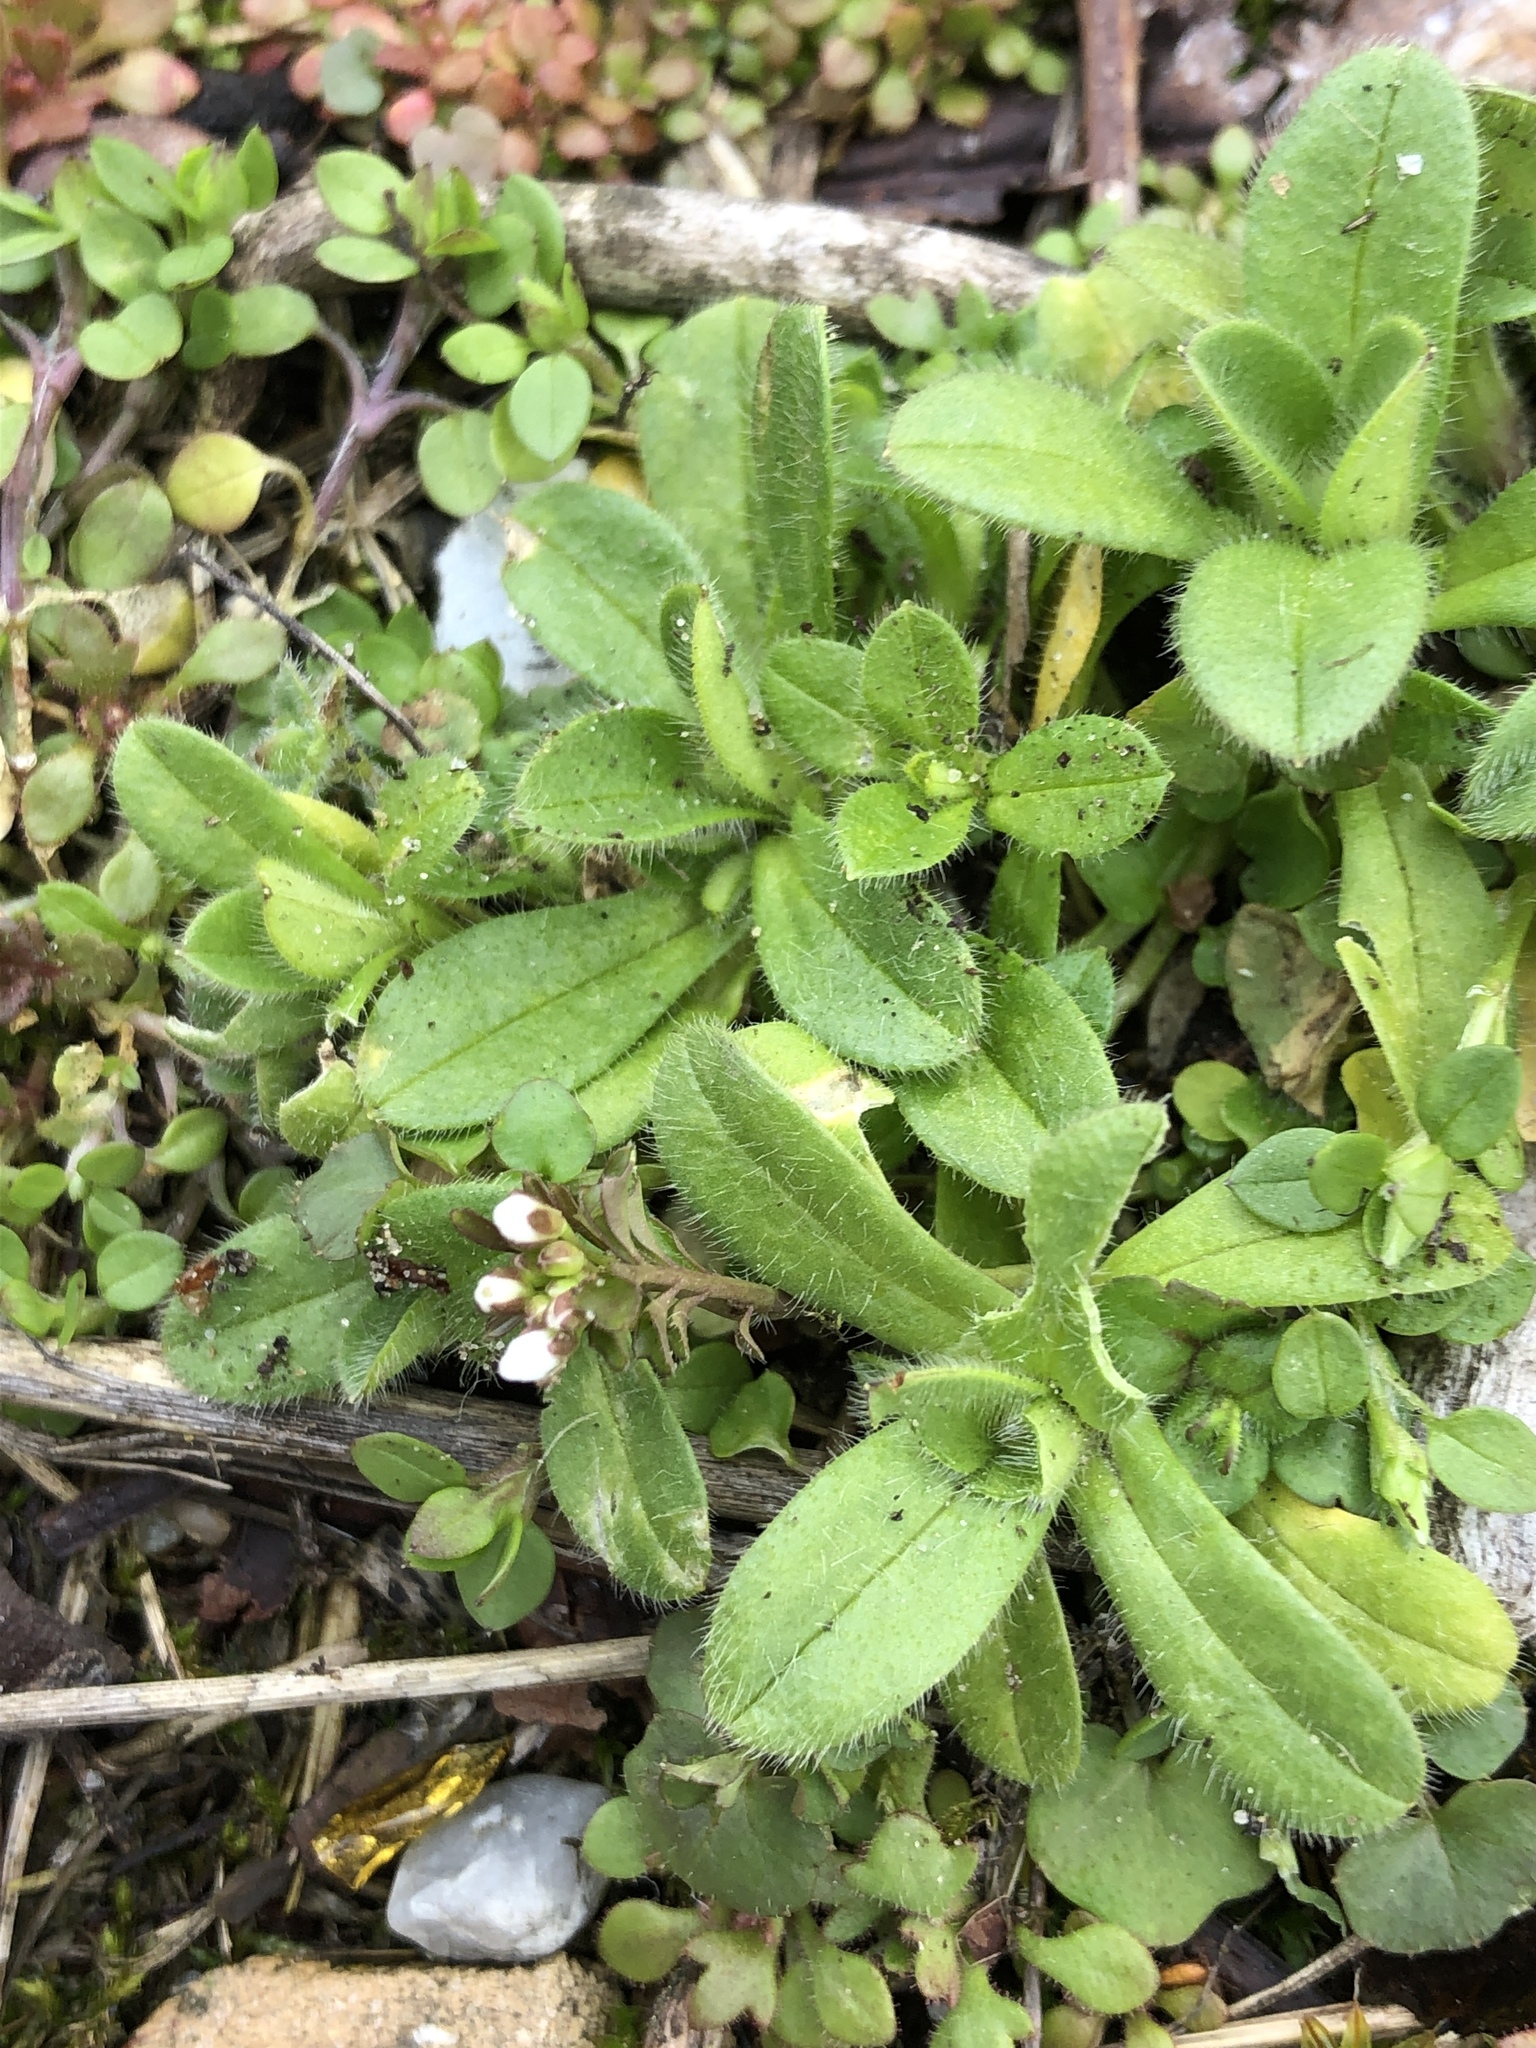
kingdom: Plantae
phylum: Tracheophyta
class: Magnoliopsida
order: Brassicales
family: Brassicaceae
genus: Capsella
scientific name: Capsella bursa-pastoris
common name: Shepherd's purse
